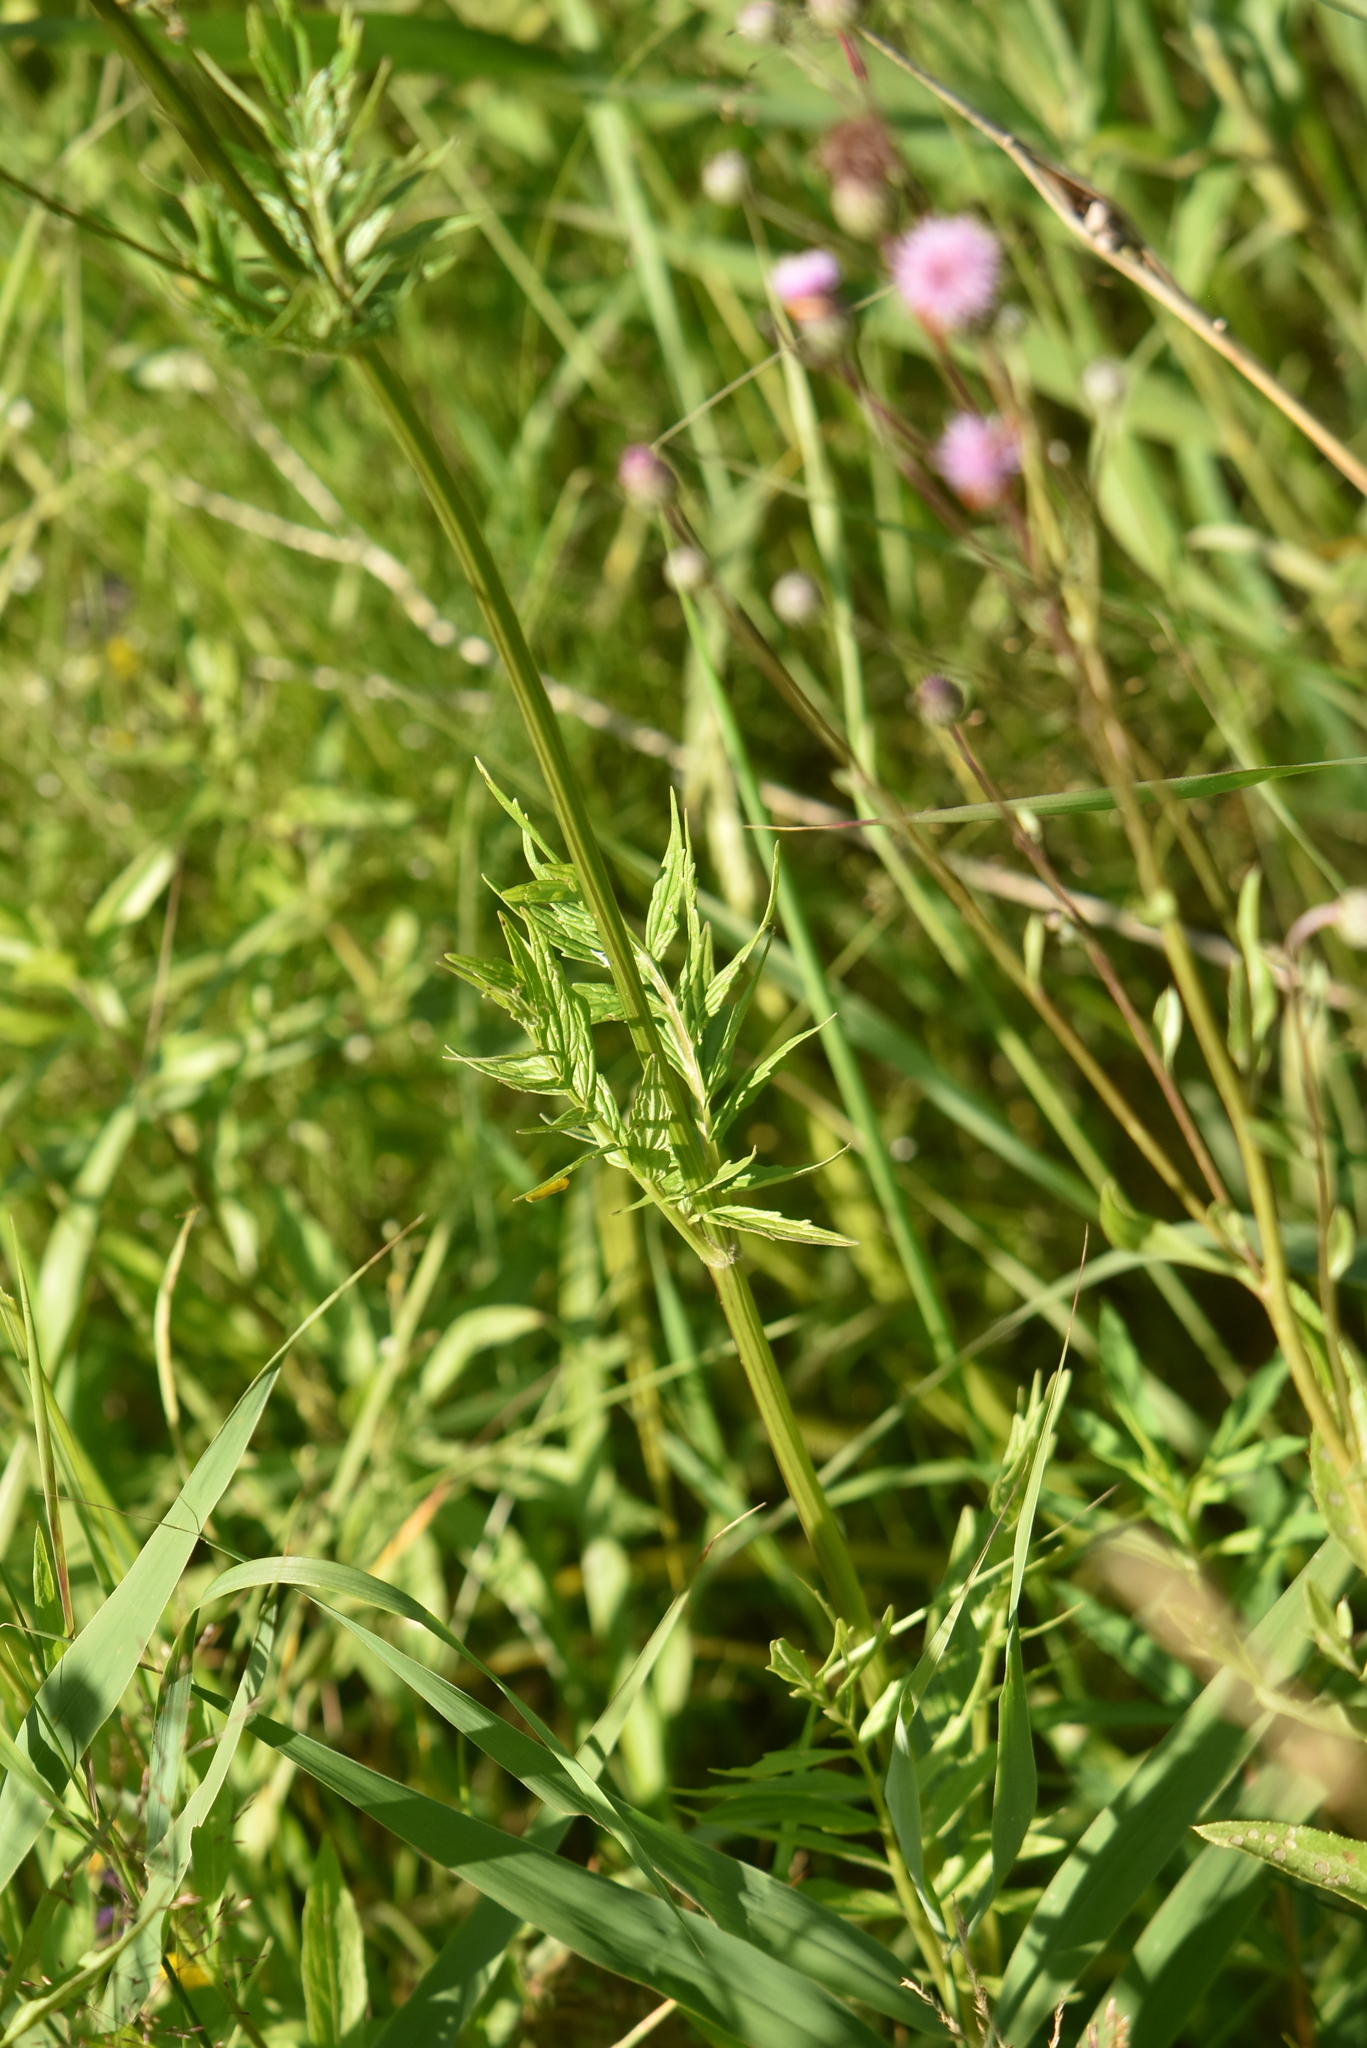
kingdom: Plantae
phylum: Tracheophyta
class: Magnoliopsida
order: Dipsacales
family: Caprifoliaceae
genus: Valeriana
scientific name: Valeriana officinalis
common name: Common valerian
